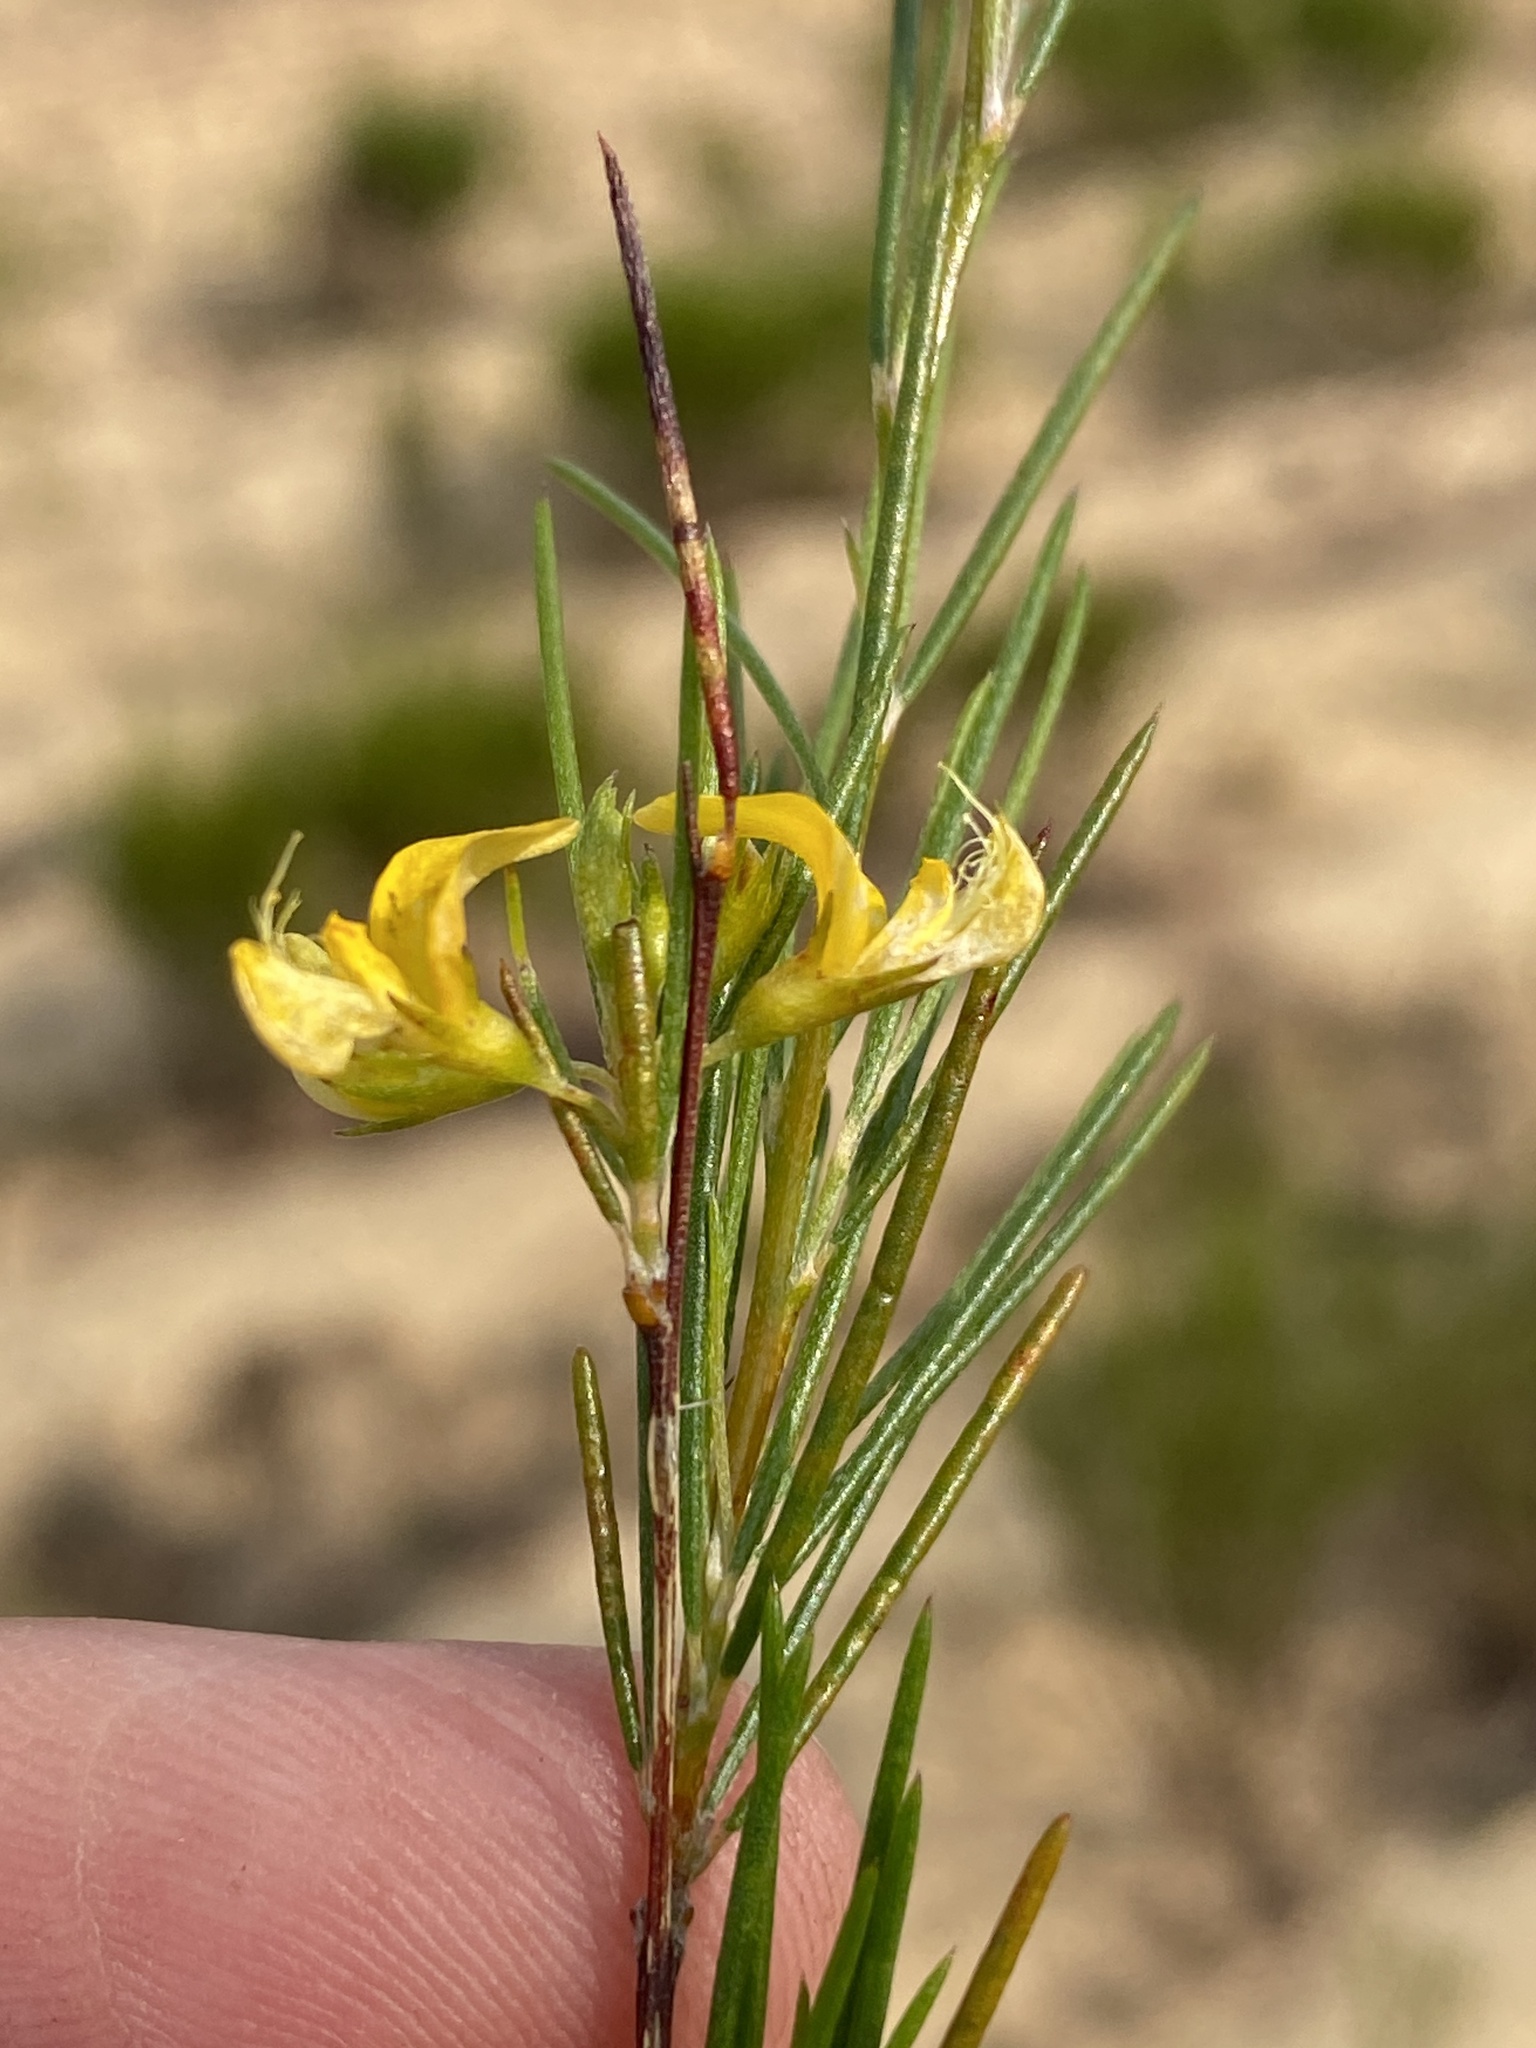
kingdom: Plantae
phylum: Tracheophyta
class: Magnoliopsida
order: Fabales
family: Fabaceae
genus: Aspalathus
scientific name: Aspalathus linearis
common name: Rooibos-tea
